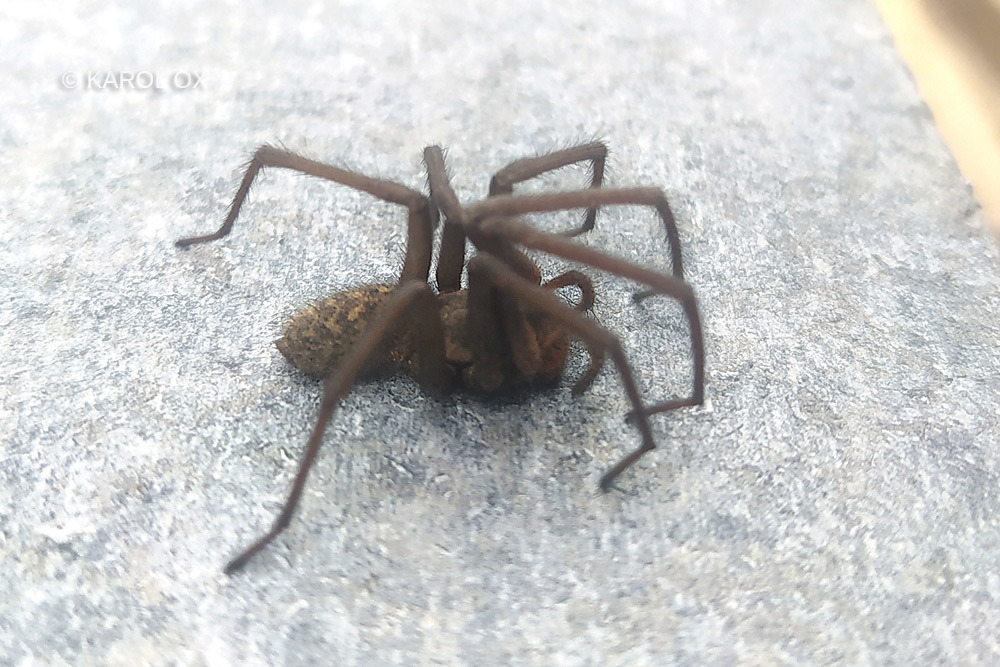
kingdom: Animalia
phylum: Arthropoda
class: Arachnida
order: Araneae
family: Agelenidae
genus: Eratigena
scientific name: Eratigena atrica
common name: Giant house spider
